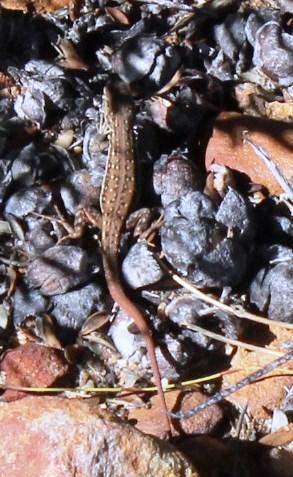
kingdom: Animalia
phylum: Chordata
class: Squamata
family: Lacertidae
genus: Pedioplanis
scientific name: Pedioplanis lineoocellata
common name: Spotted sand lizard
